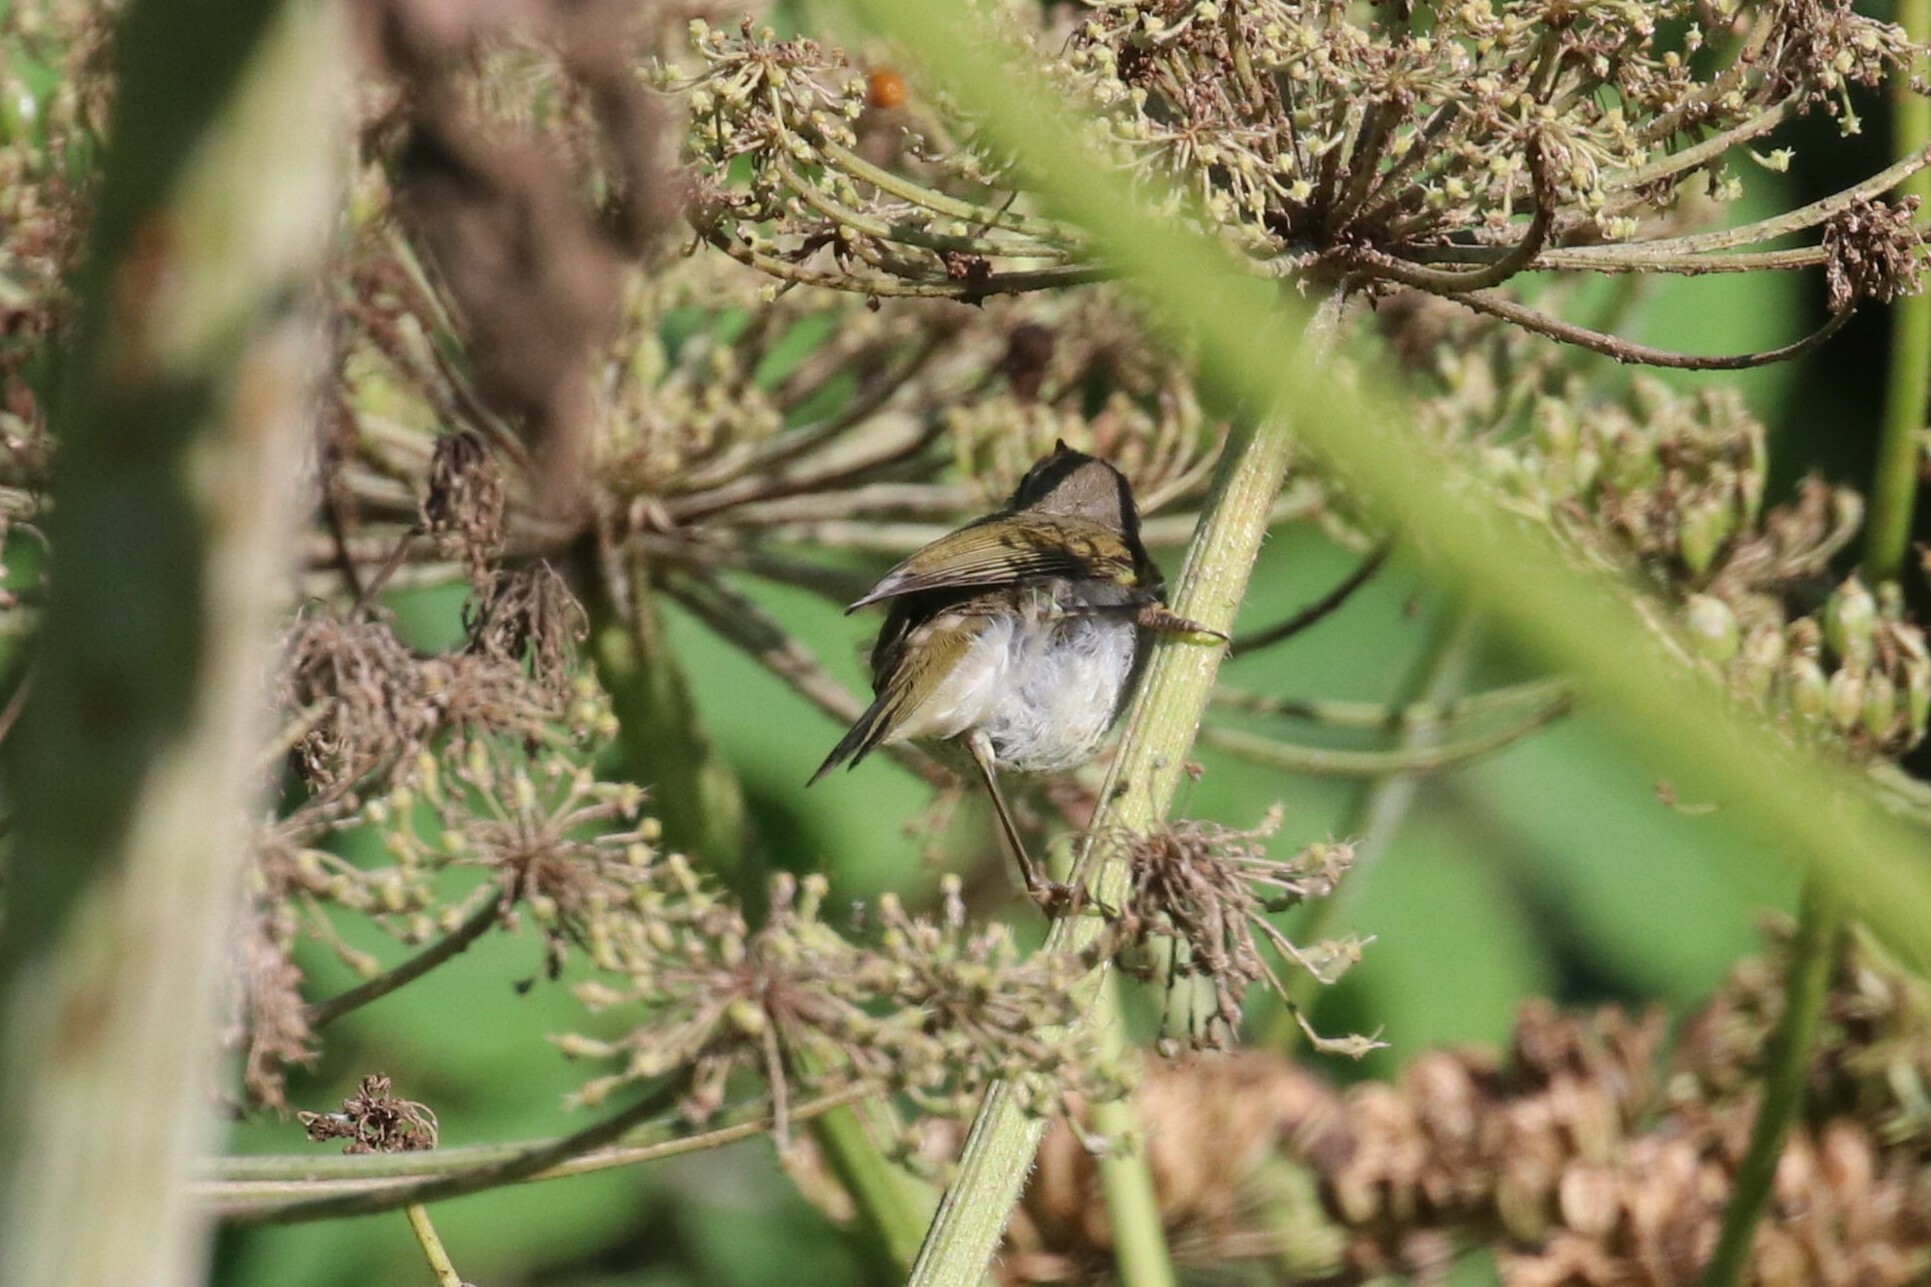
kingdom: Animalia
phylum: Chordata
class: Aves
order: Passeriformes
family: Phylloscopidae
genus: Phylloscopus
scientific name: Phylloscopus collybita
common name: Common chiffchaff
